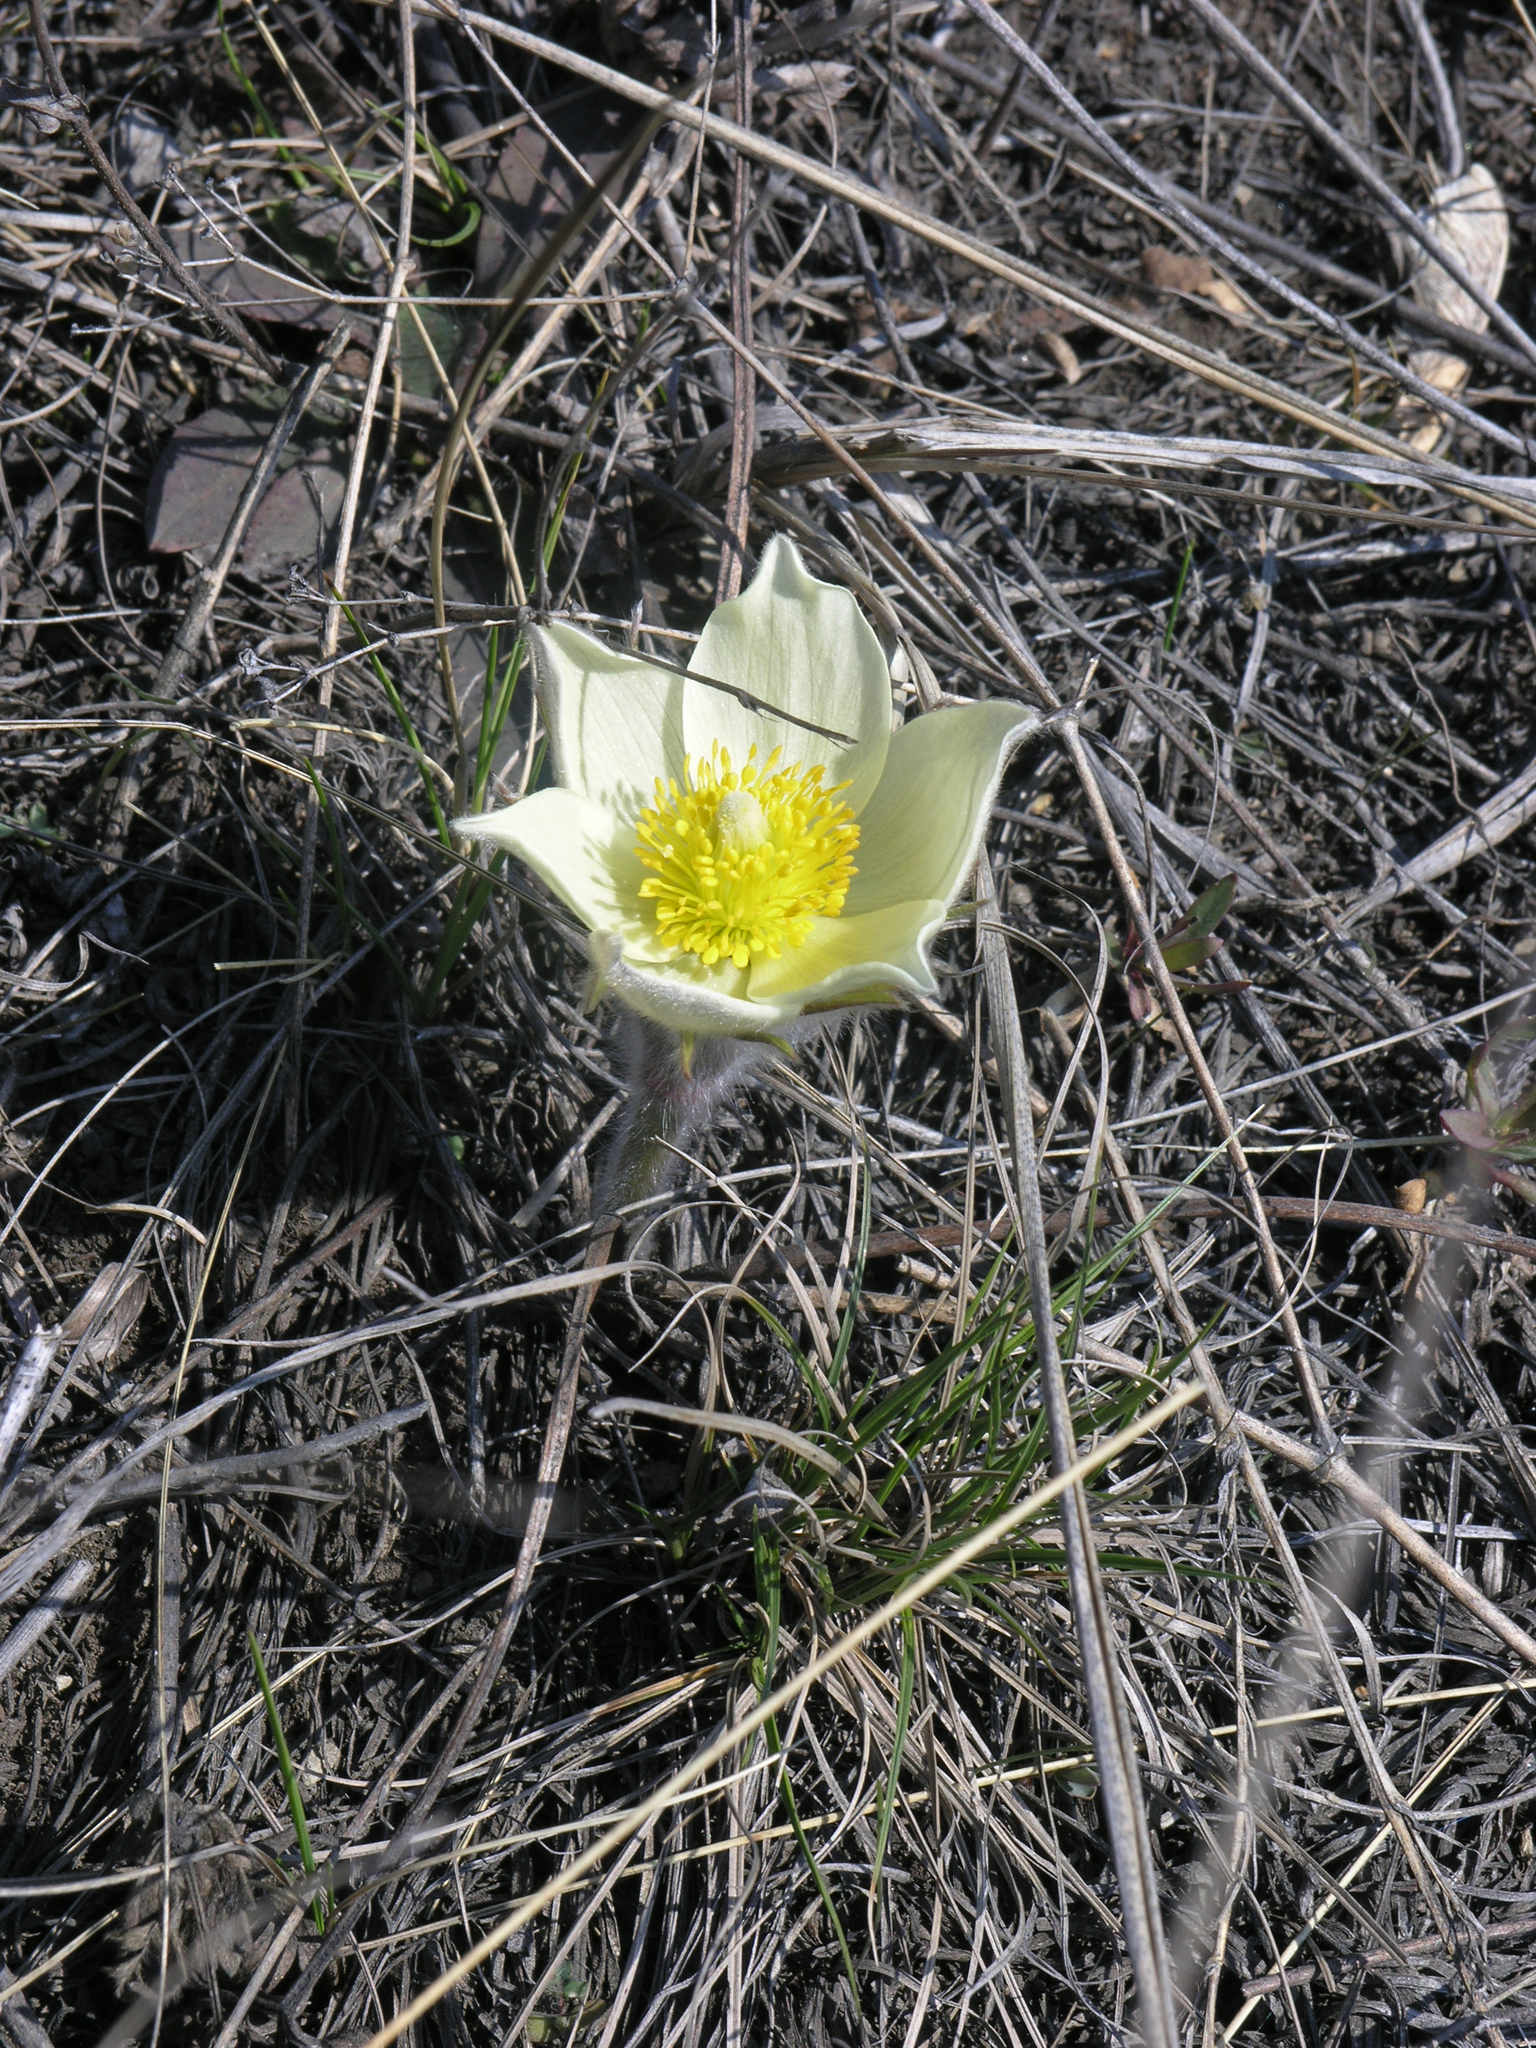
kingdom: Plantae
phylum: Tracheophyta
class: Magnoliopsida
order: Ranunculales
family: Ranunculaceae
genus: Pulsatilla
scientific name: Pulsatilla patens
